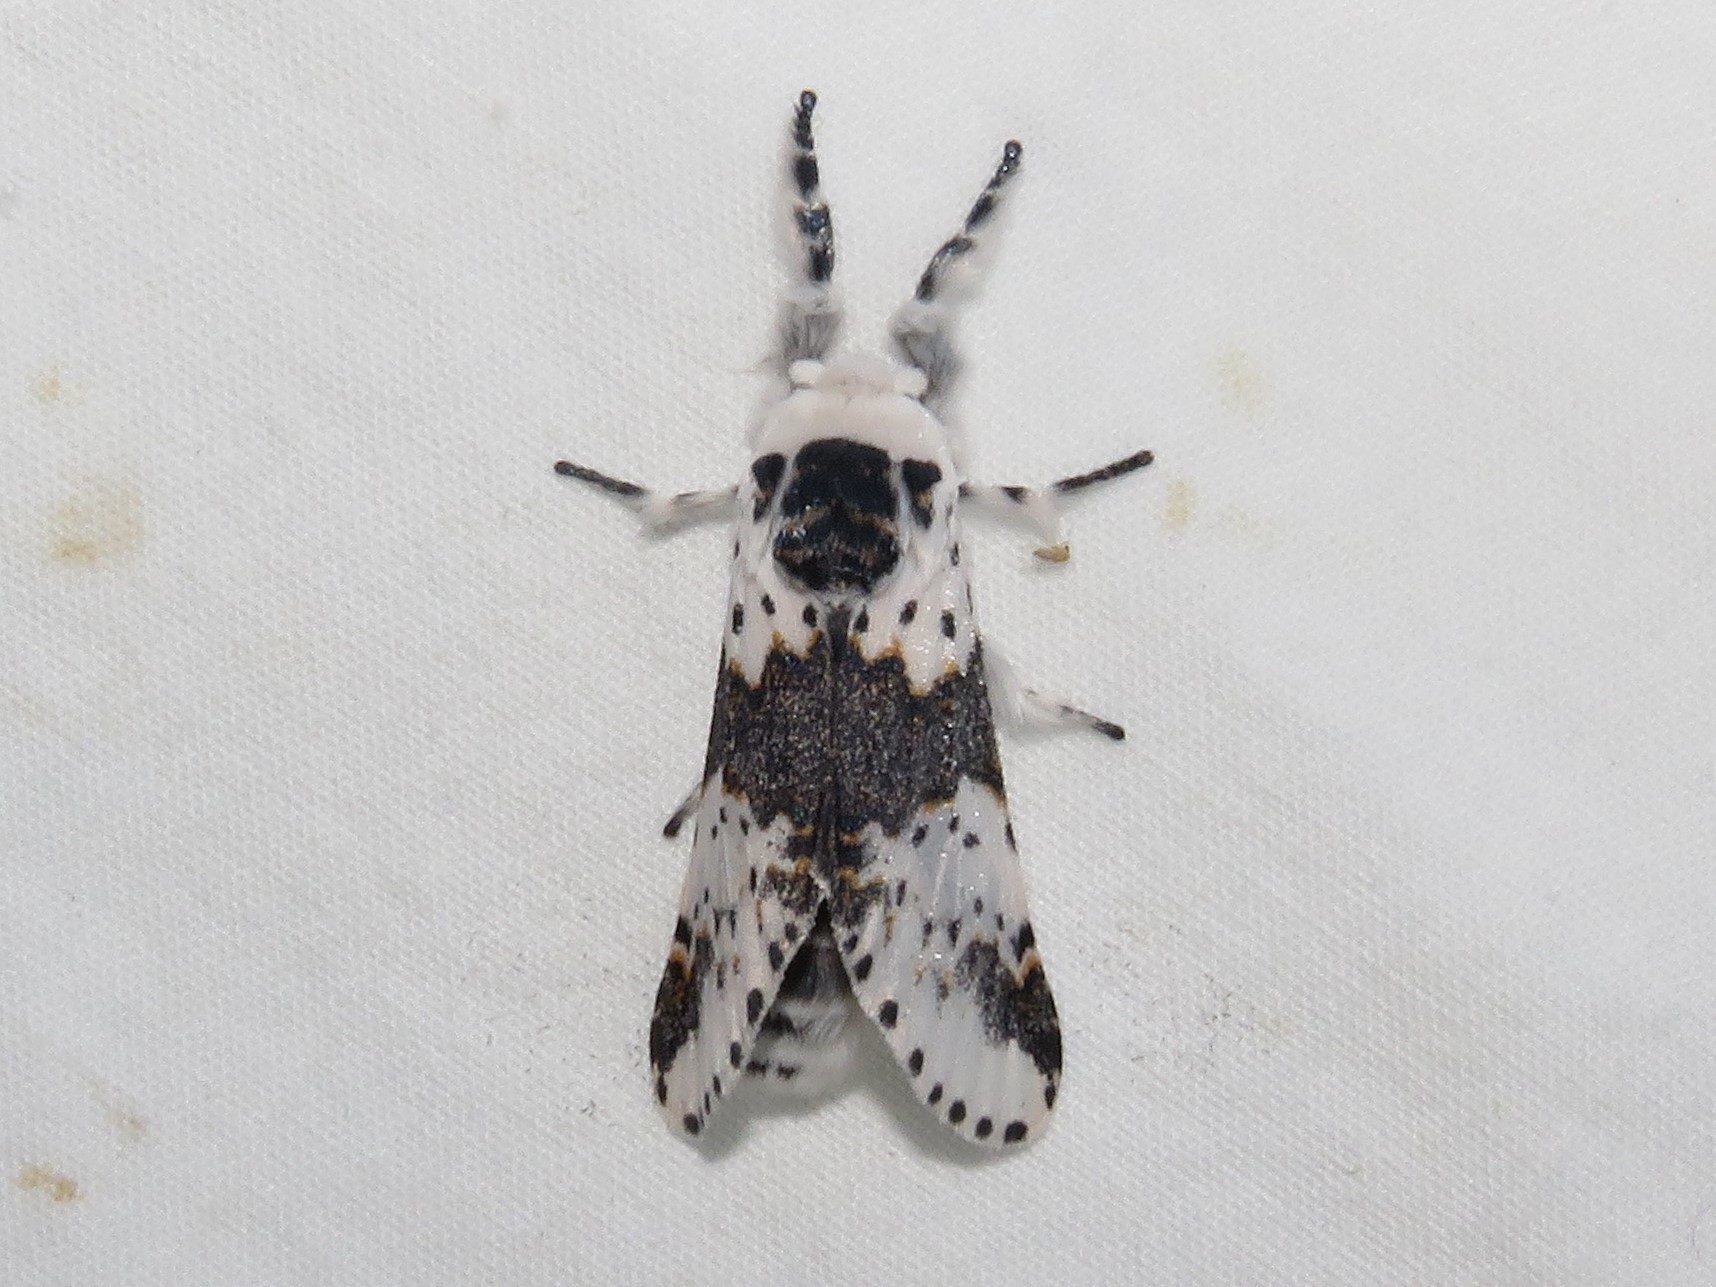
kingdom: Animalia
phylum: Arthropoda
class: Insecta
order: Lepidoptera
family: Notodontidae
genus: Furcula
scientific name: Furcula borealis
